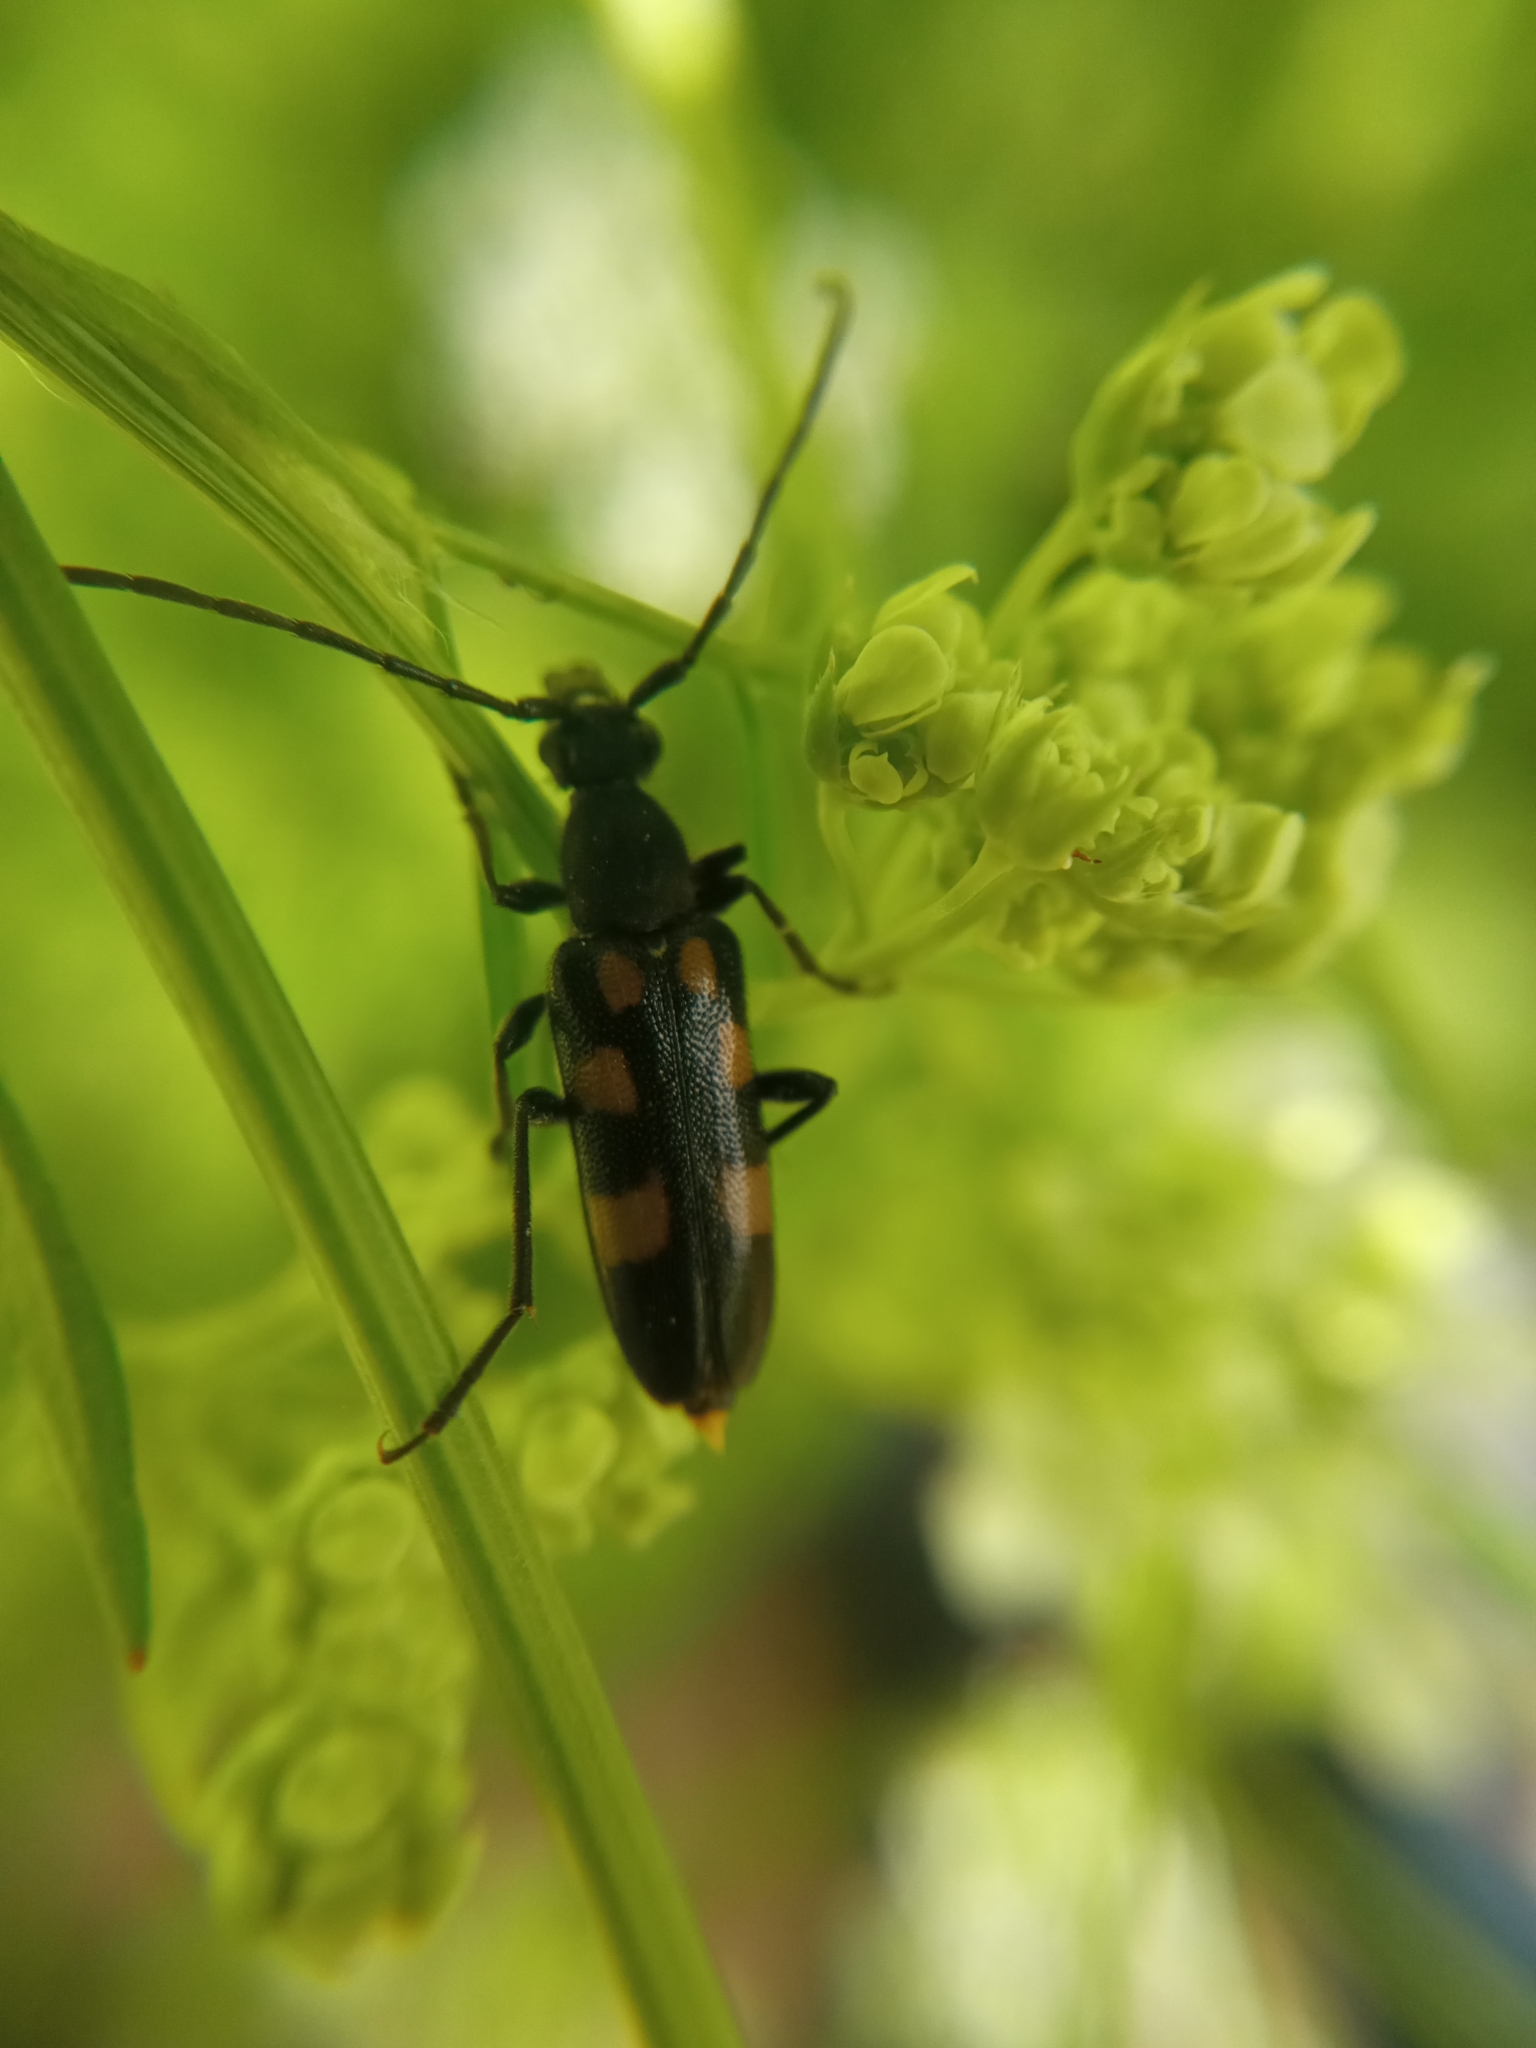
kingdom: Animalia
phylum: Arthropoda
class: Insecta
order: Coleoptera
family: Cerambycidae
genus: Anoplodera
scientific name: Anoplodera sexguttata
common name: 6 spotted longhorn
